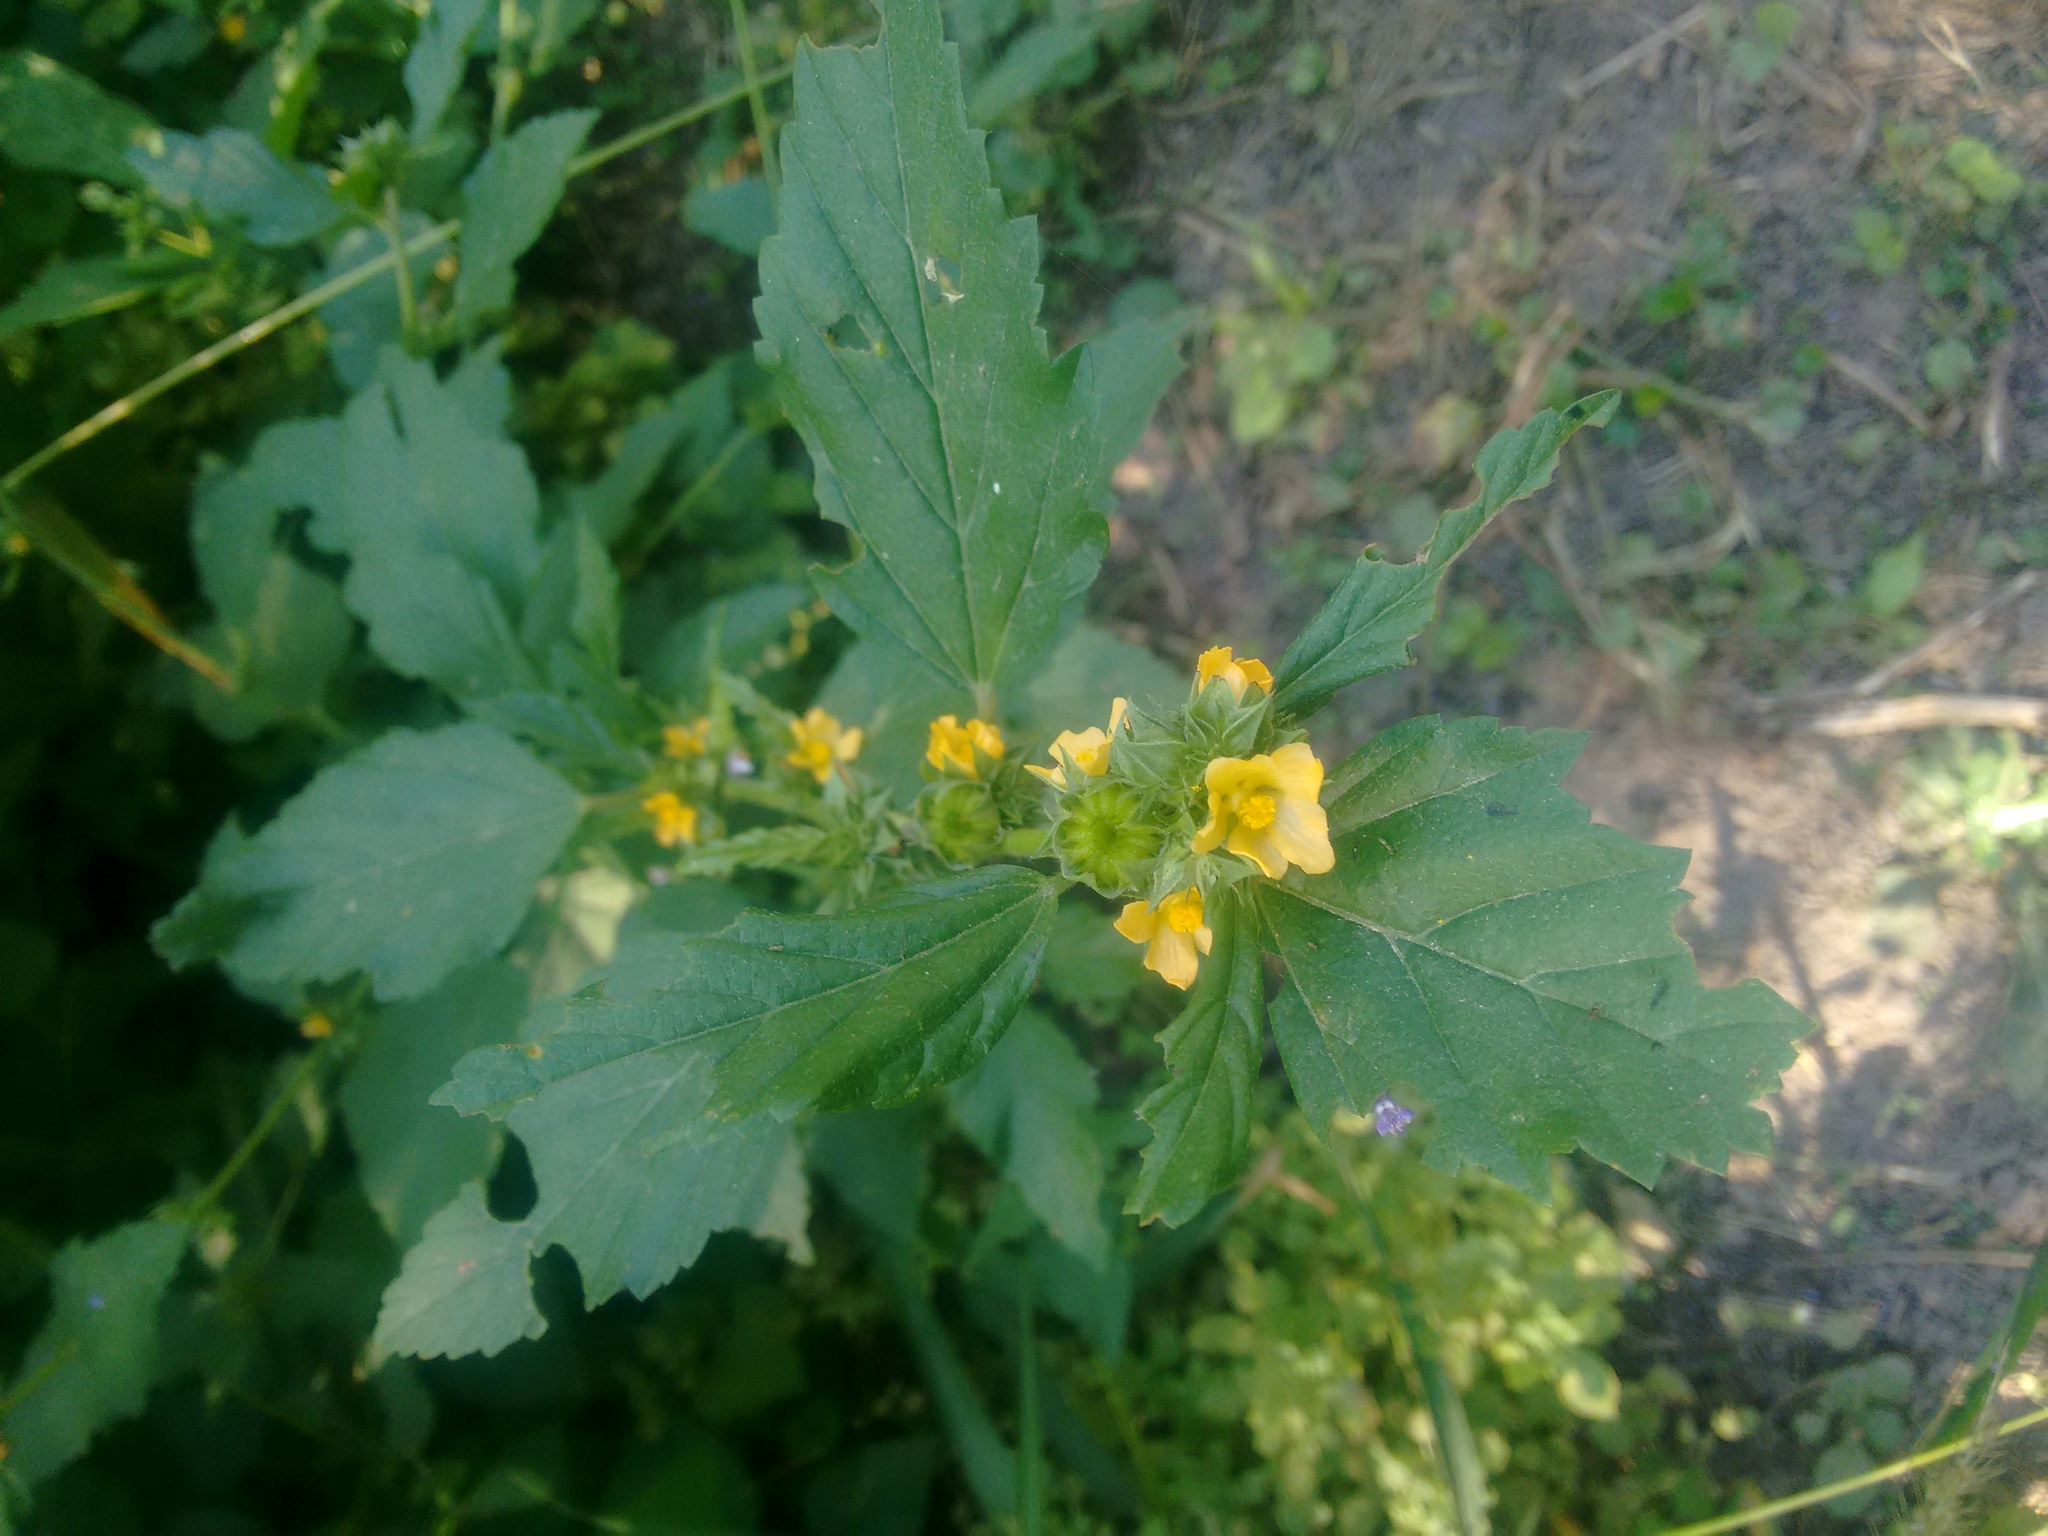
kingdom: Plantae
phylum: Tracheophyta
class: Magnoliopsida
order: Malvales
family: Malvaceae
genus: Malvastrum
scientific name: Malvastrum coromandelianum
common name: Threelobe false mallow
